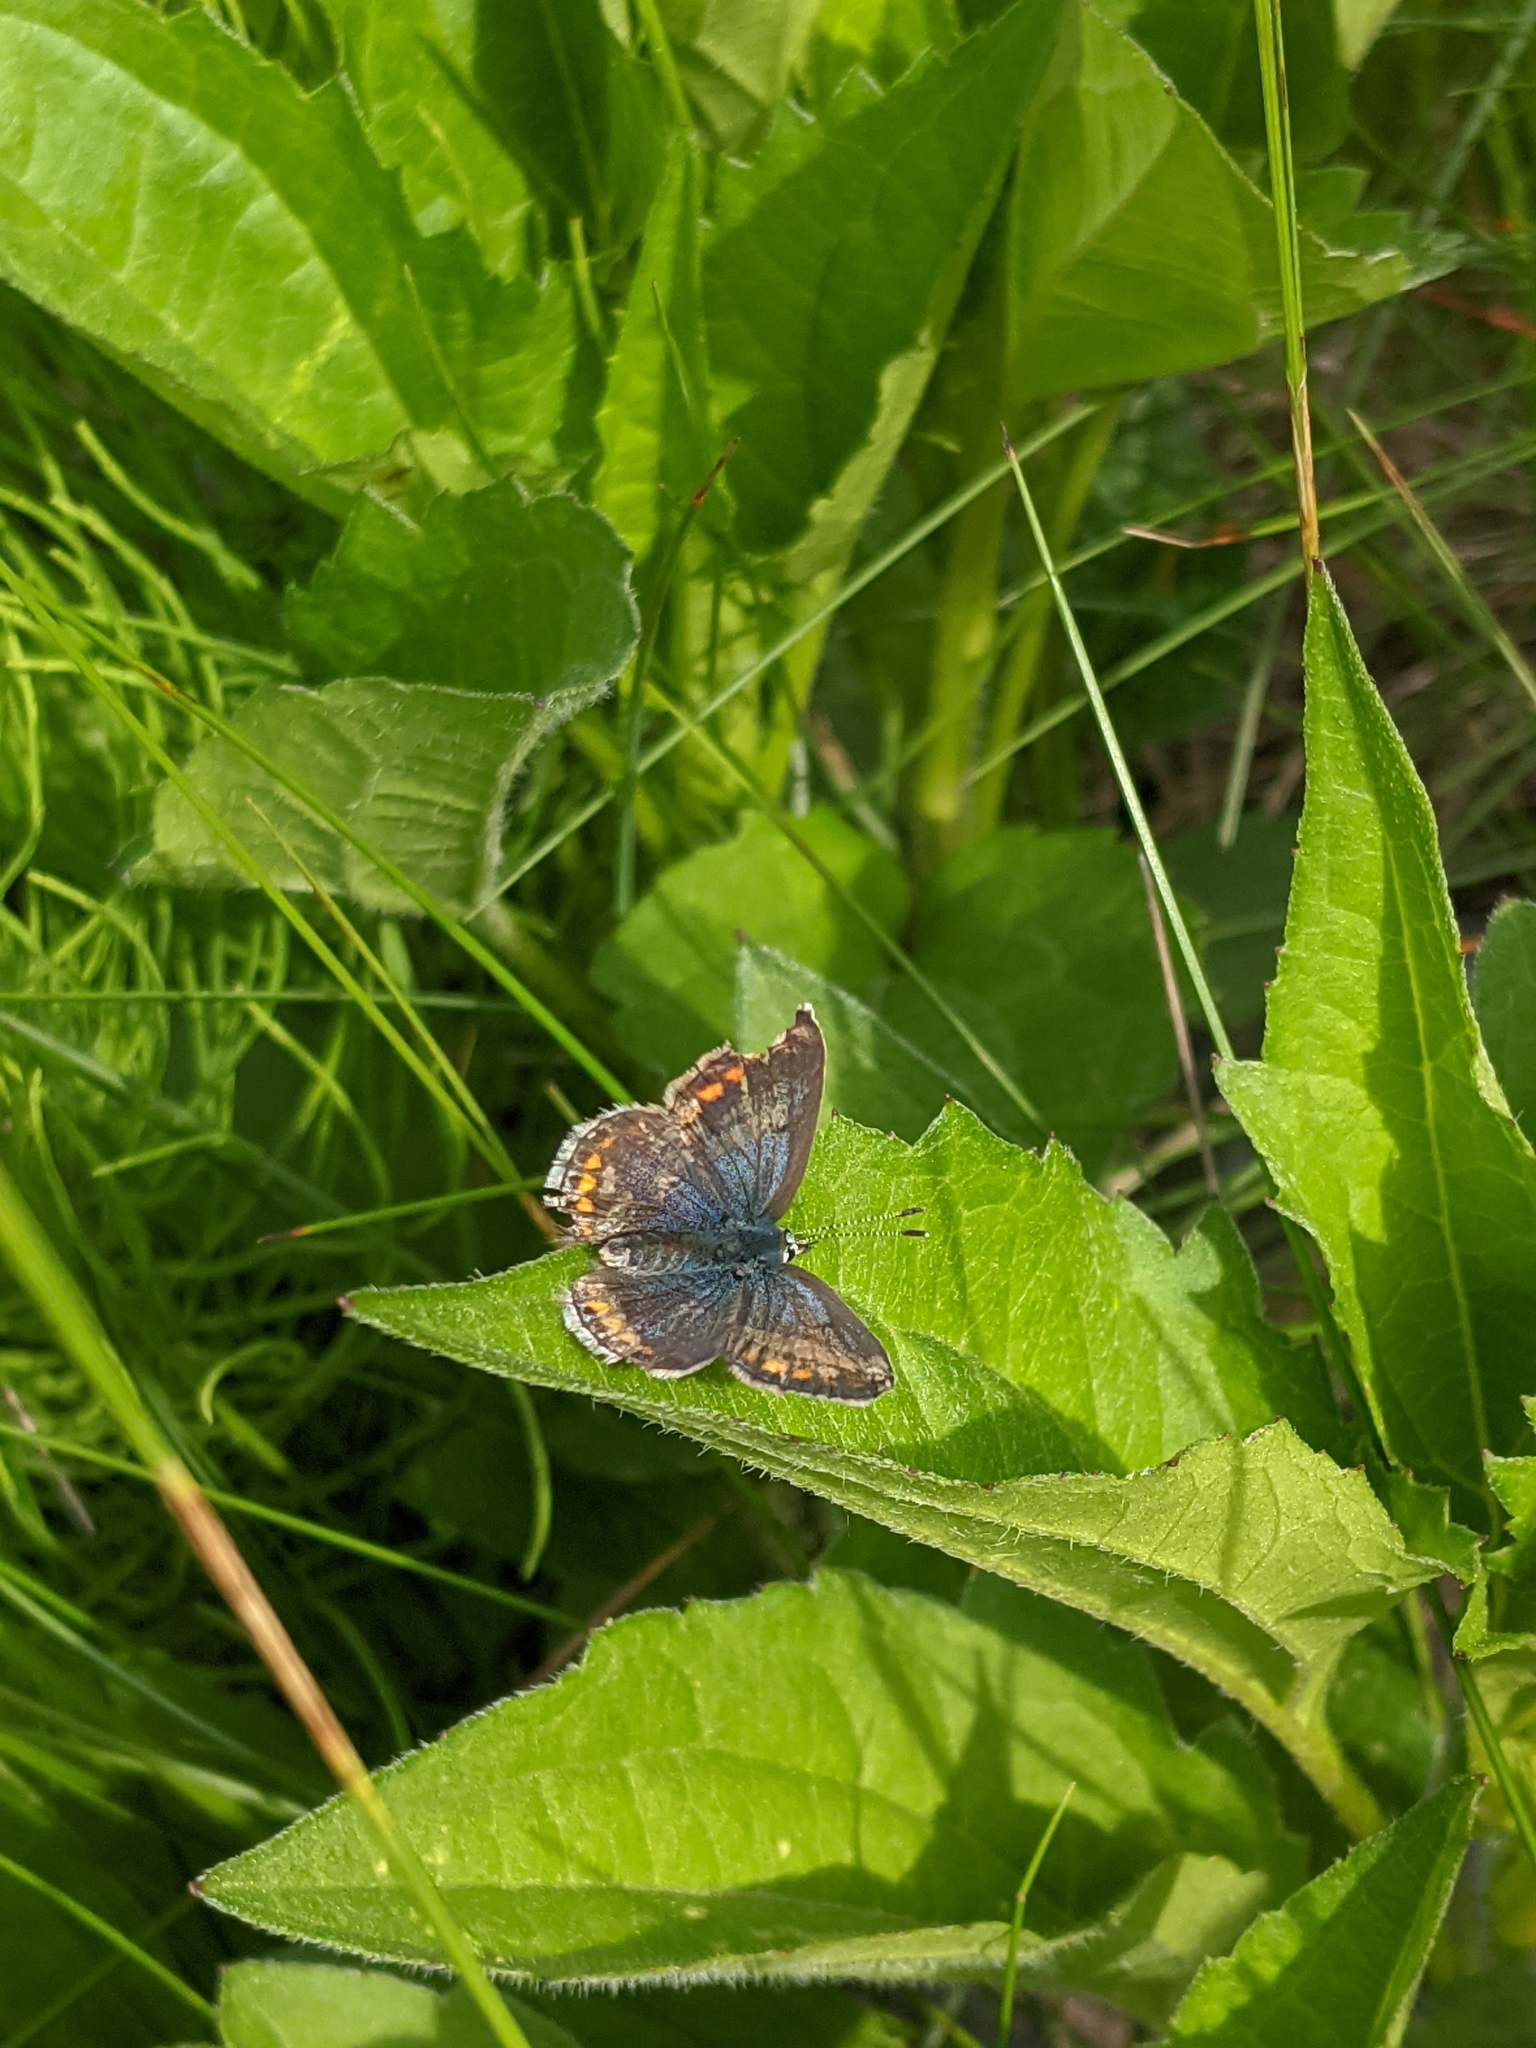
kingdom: Animalia
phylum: Arthropoda
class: Insecta
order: Lepidoptera
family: Lycaenidae
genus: Polyommatus
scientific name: Polyommatus icarus
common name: Common blue
